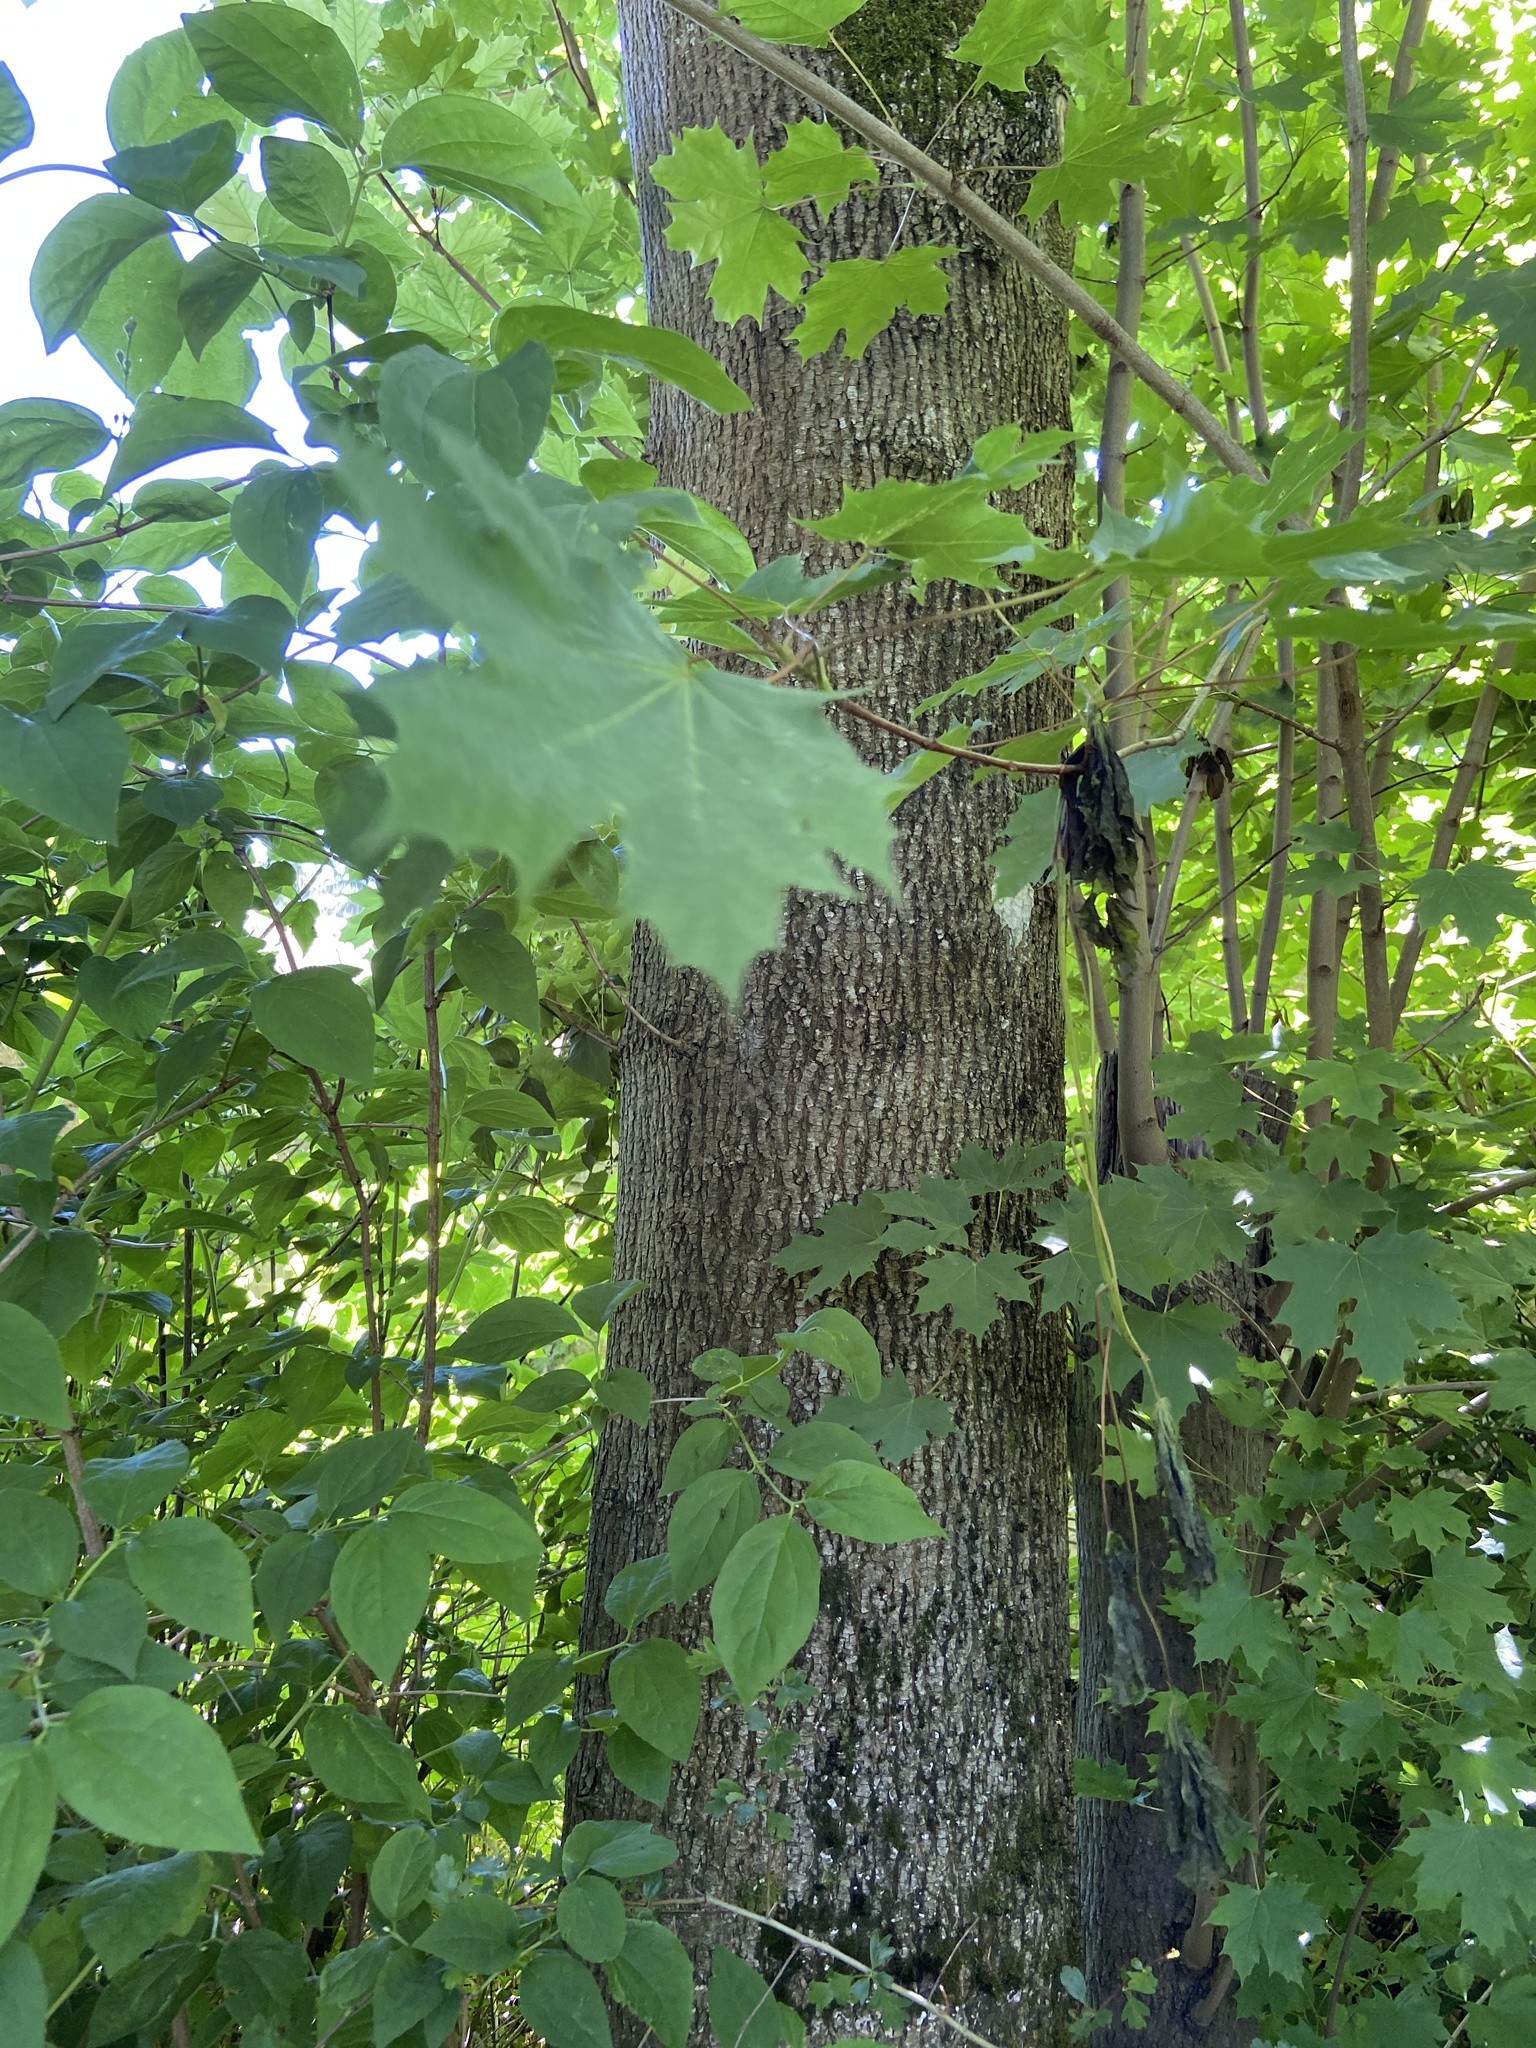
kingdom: Plantae
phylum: Tracheophyta
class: Magnoliopsida
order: Sapindales
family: Sapindaceae
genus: Acer
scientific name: Acer platanoides
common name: Norway maple
